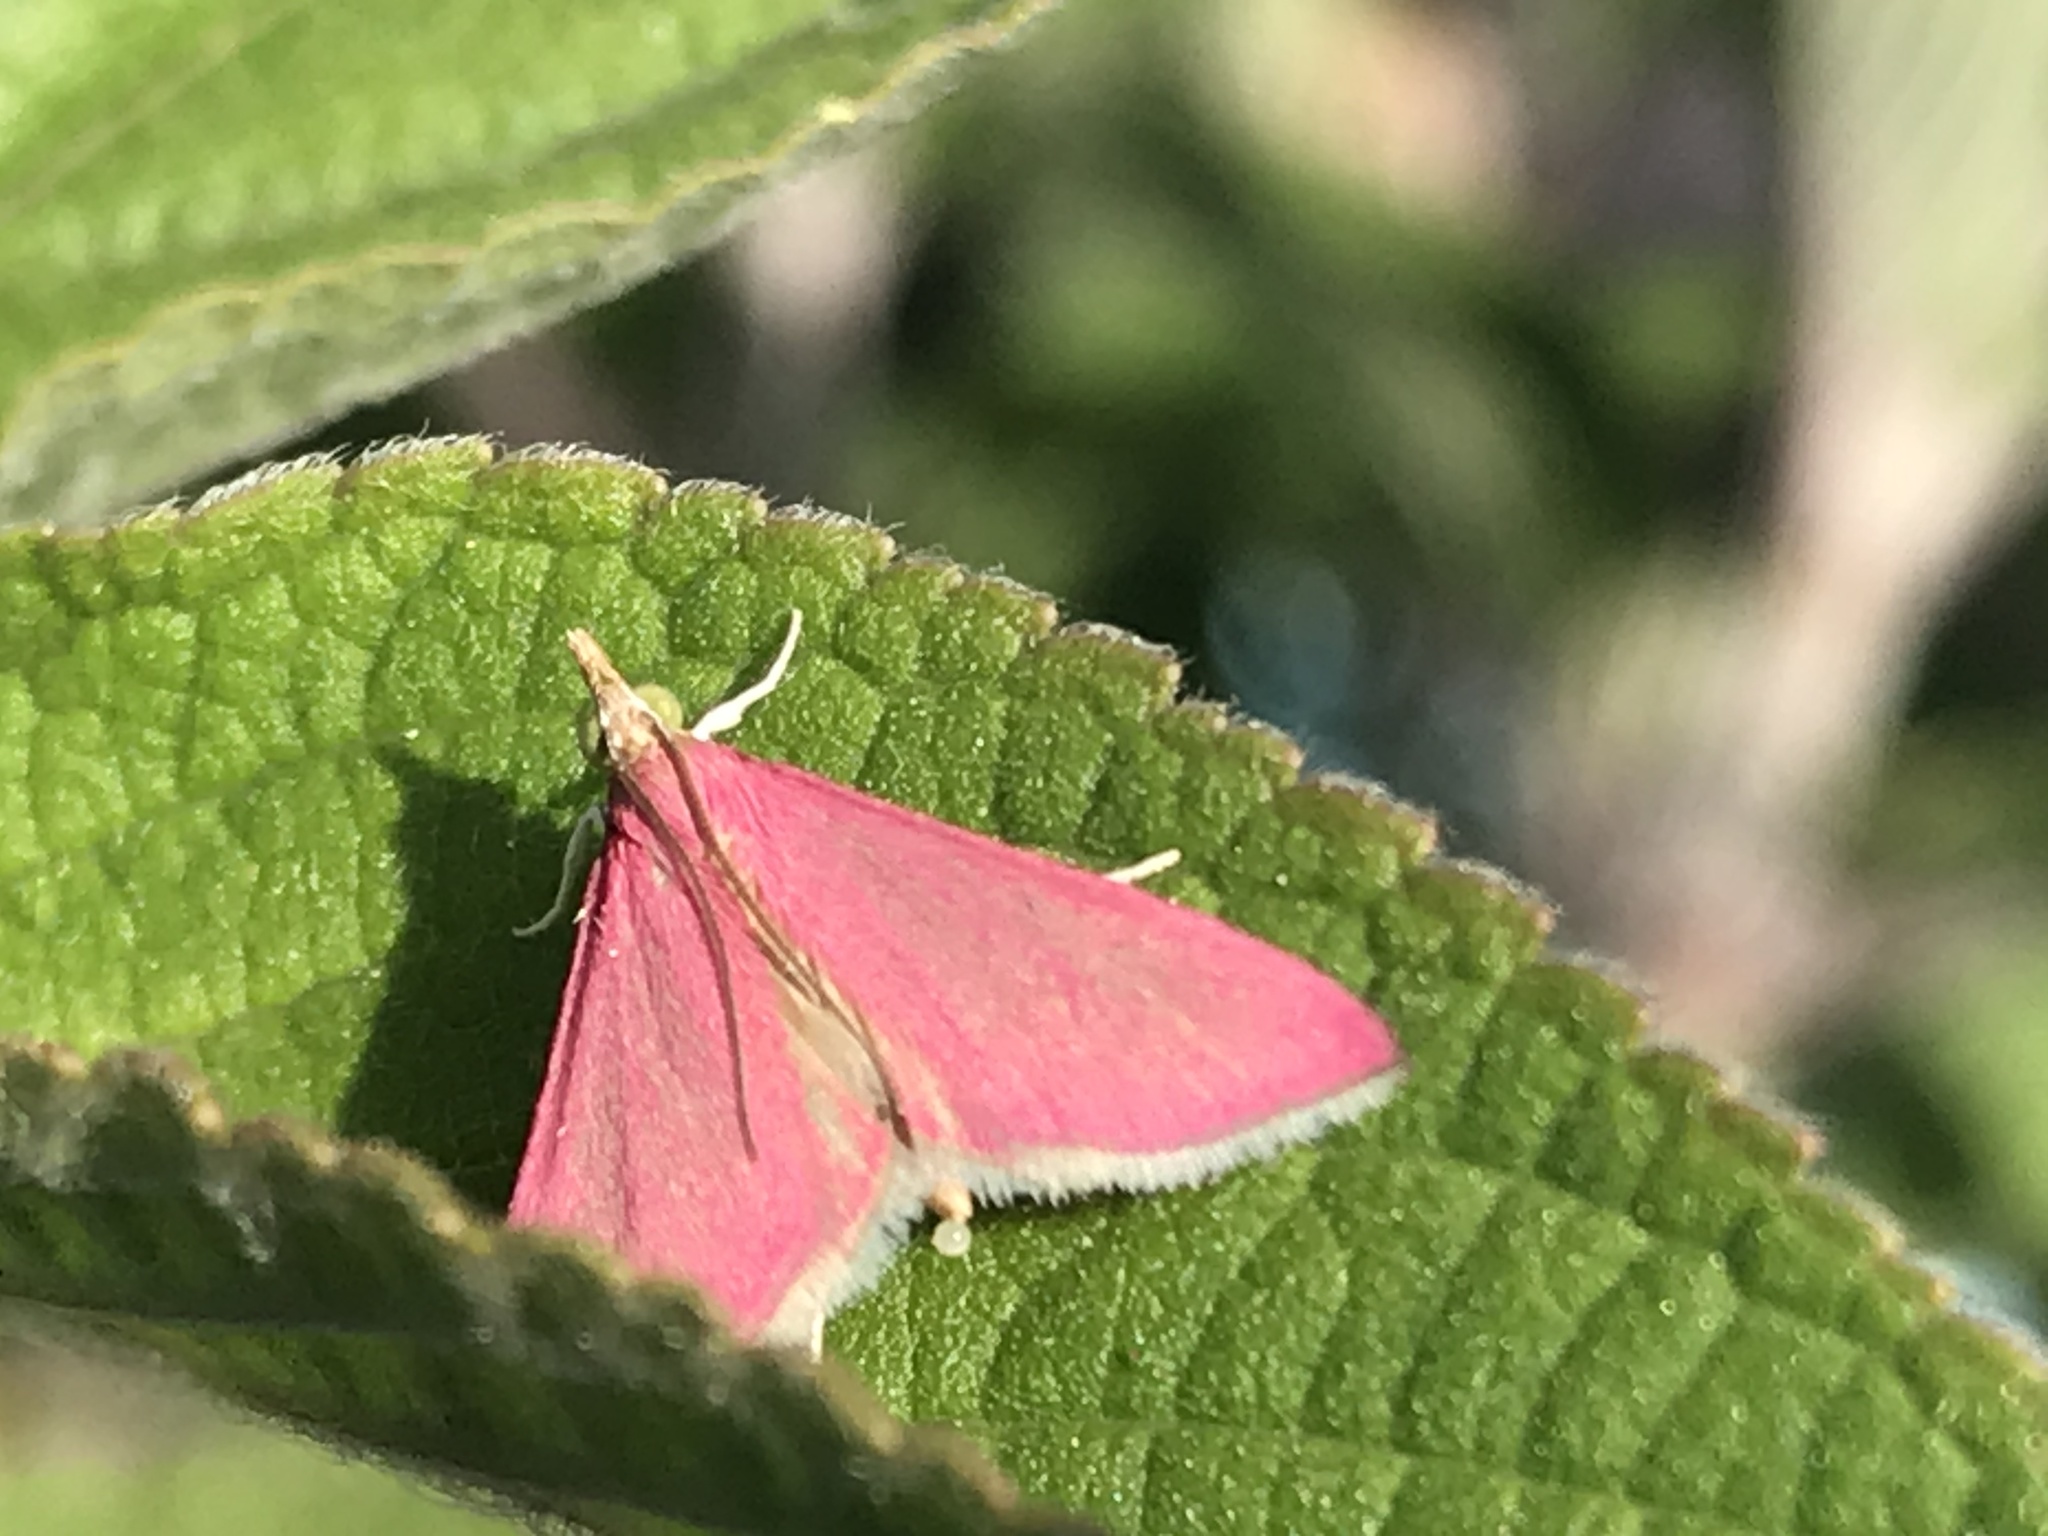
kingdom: Animalia
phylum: Arthropoda
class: Insecta
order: Lepidoptera
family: Crambidae
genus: Pyrausta
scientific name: Pyrausta inornatalis
